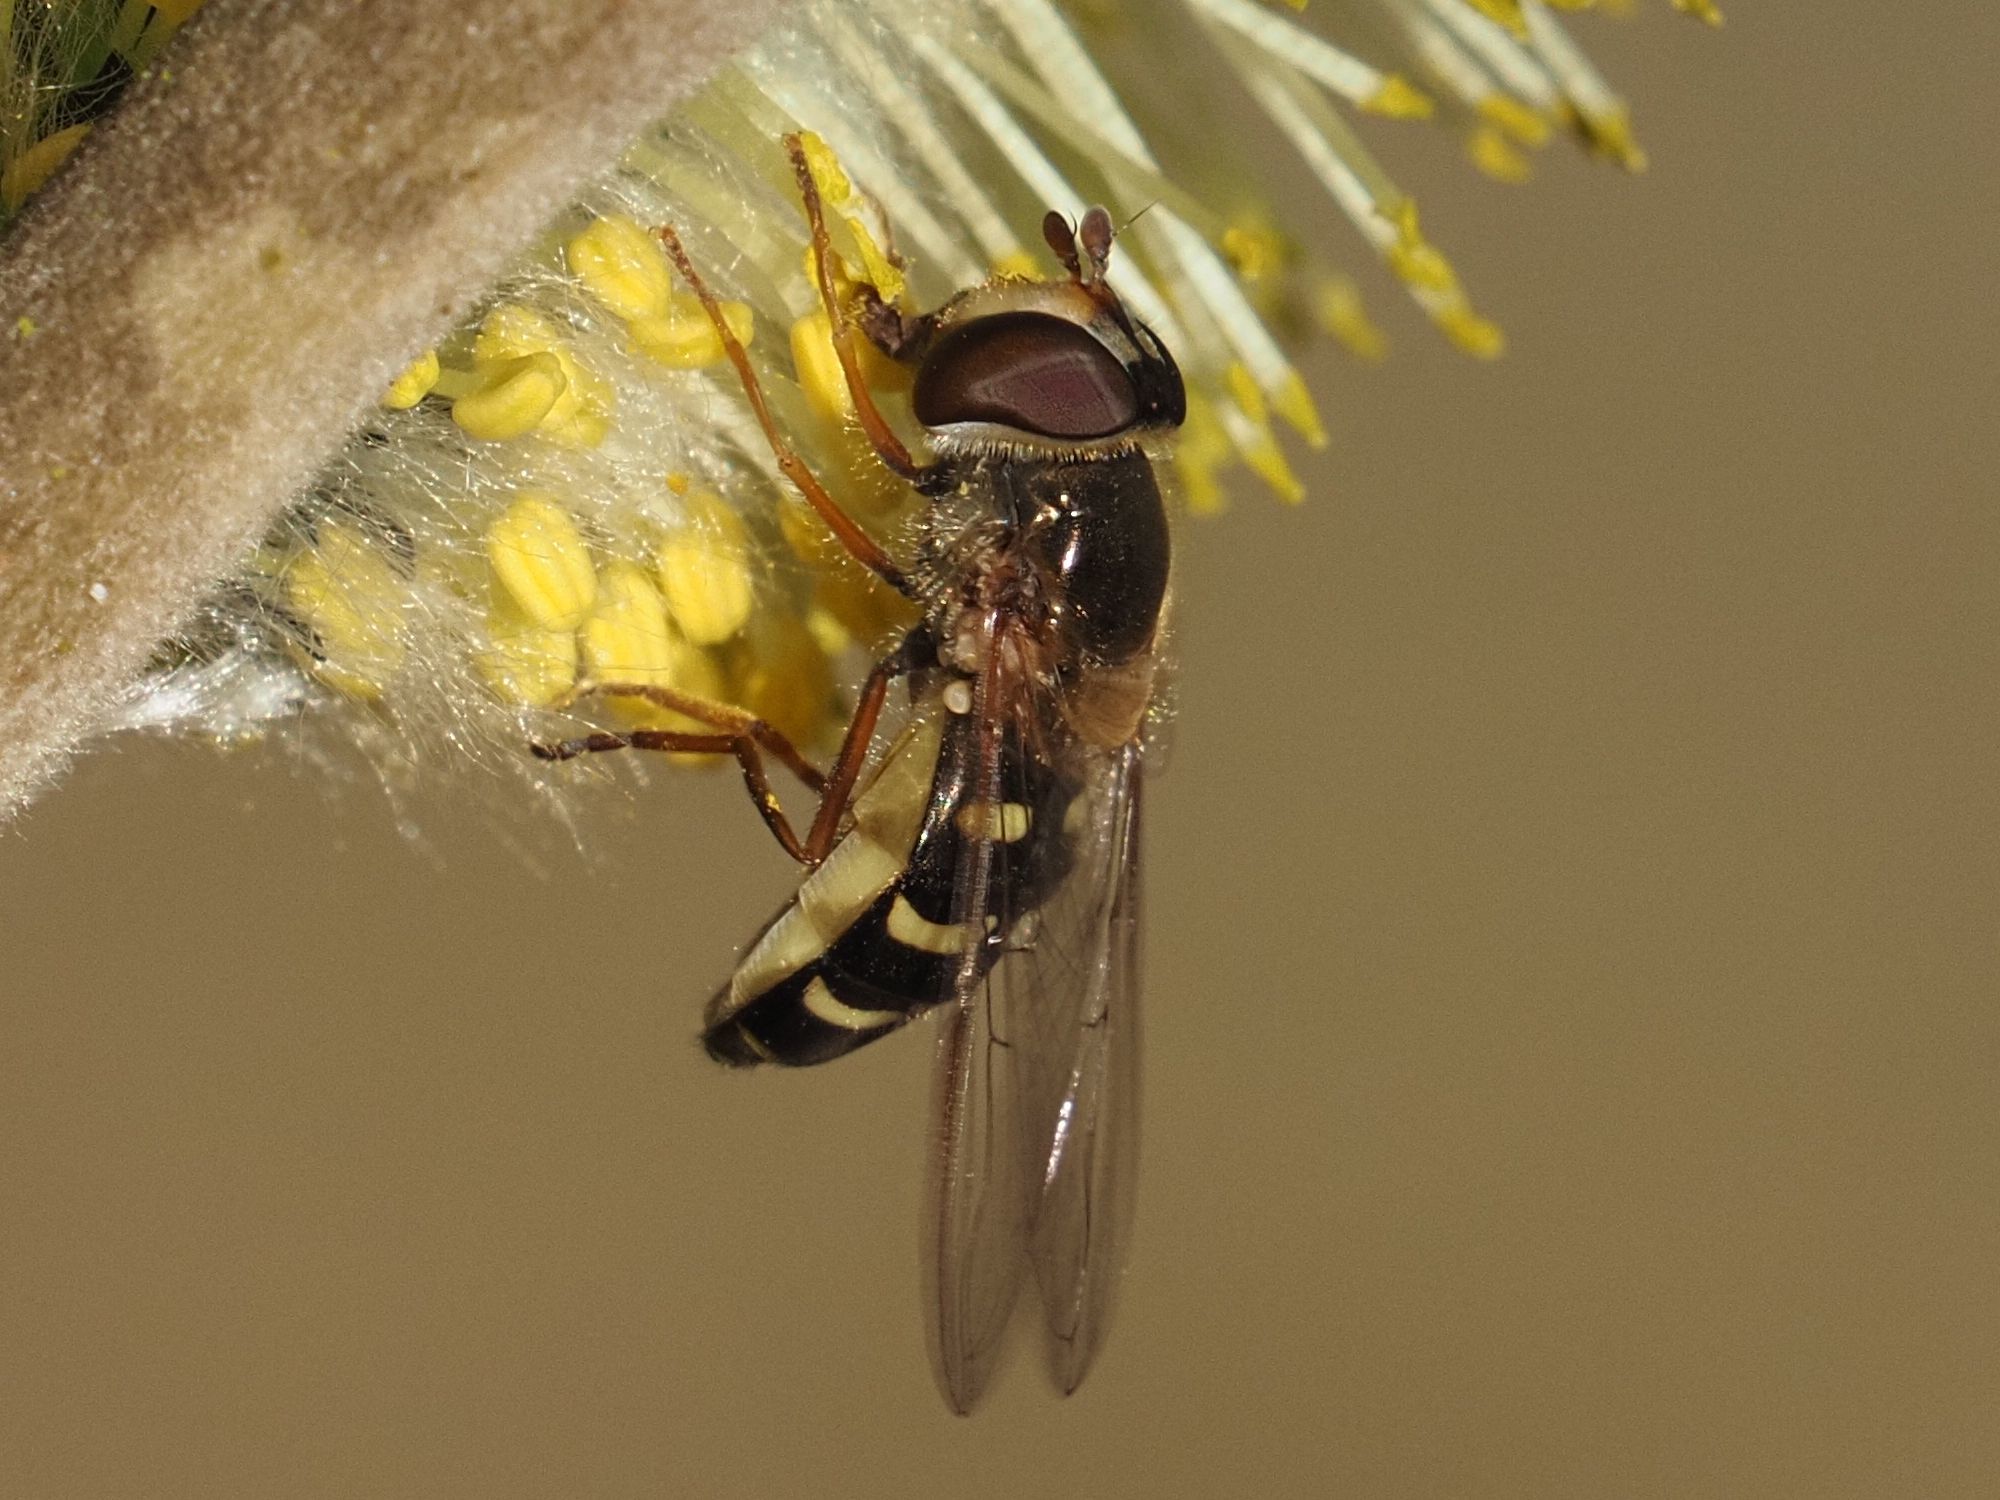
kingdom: Animalia
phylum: Arthropoda
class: Insecta
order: Diptera
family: Syrphidae
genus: Lapposyrphus
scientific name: Lapposyrphus lapponicus
